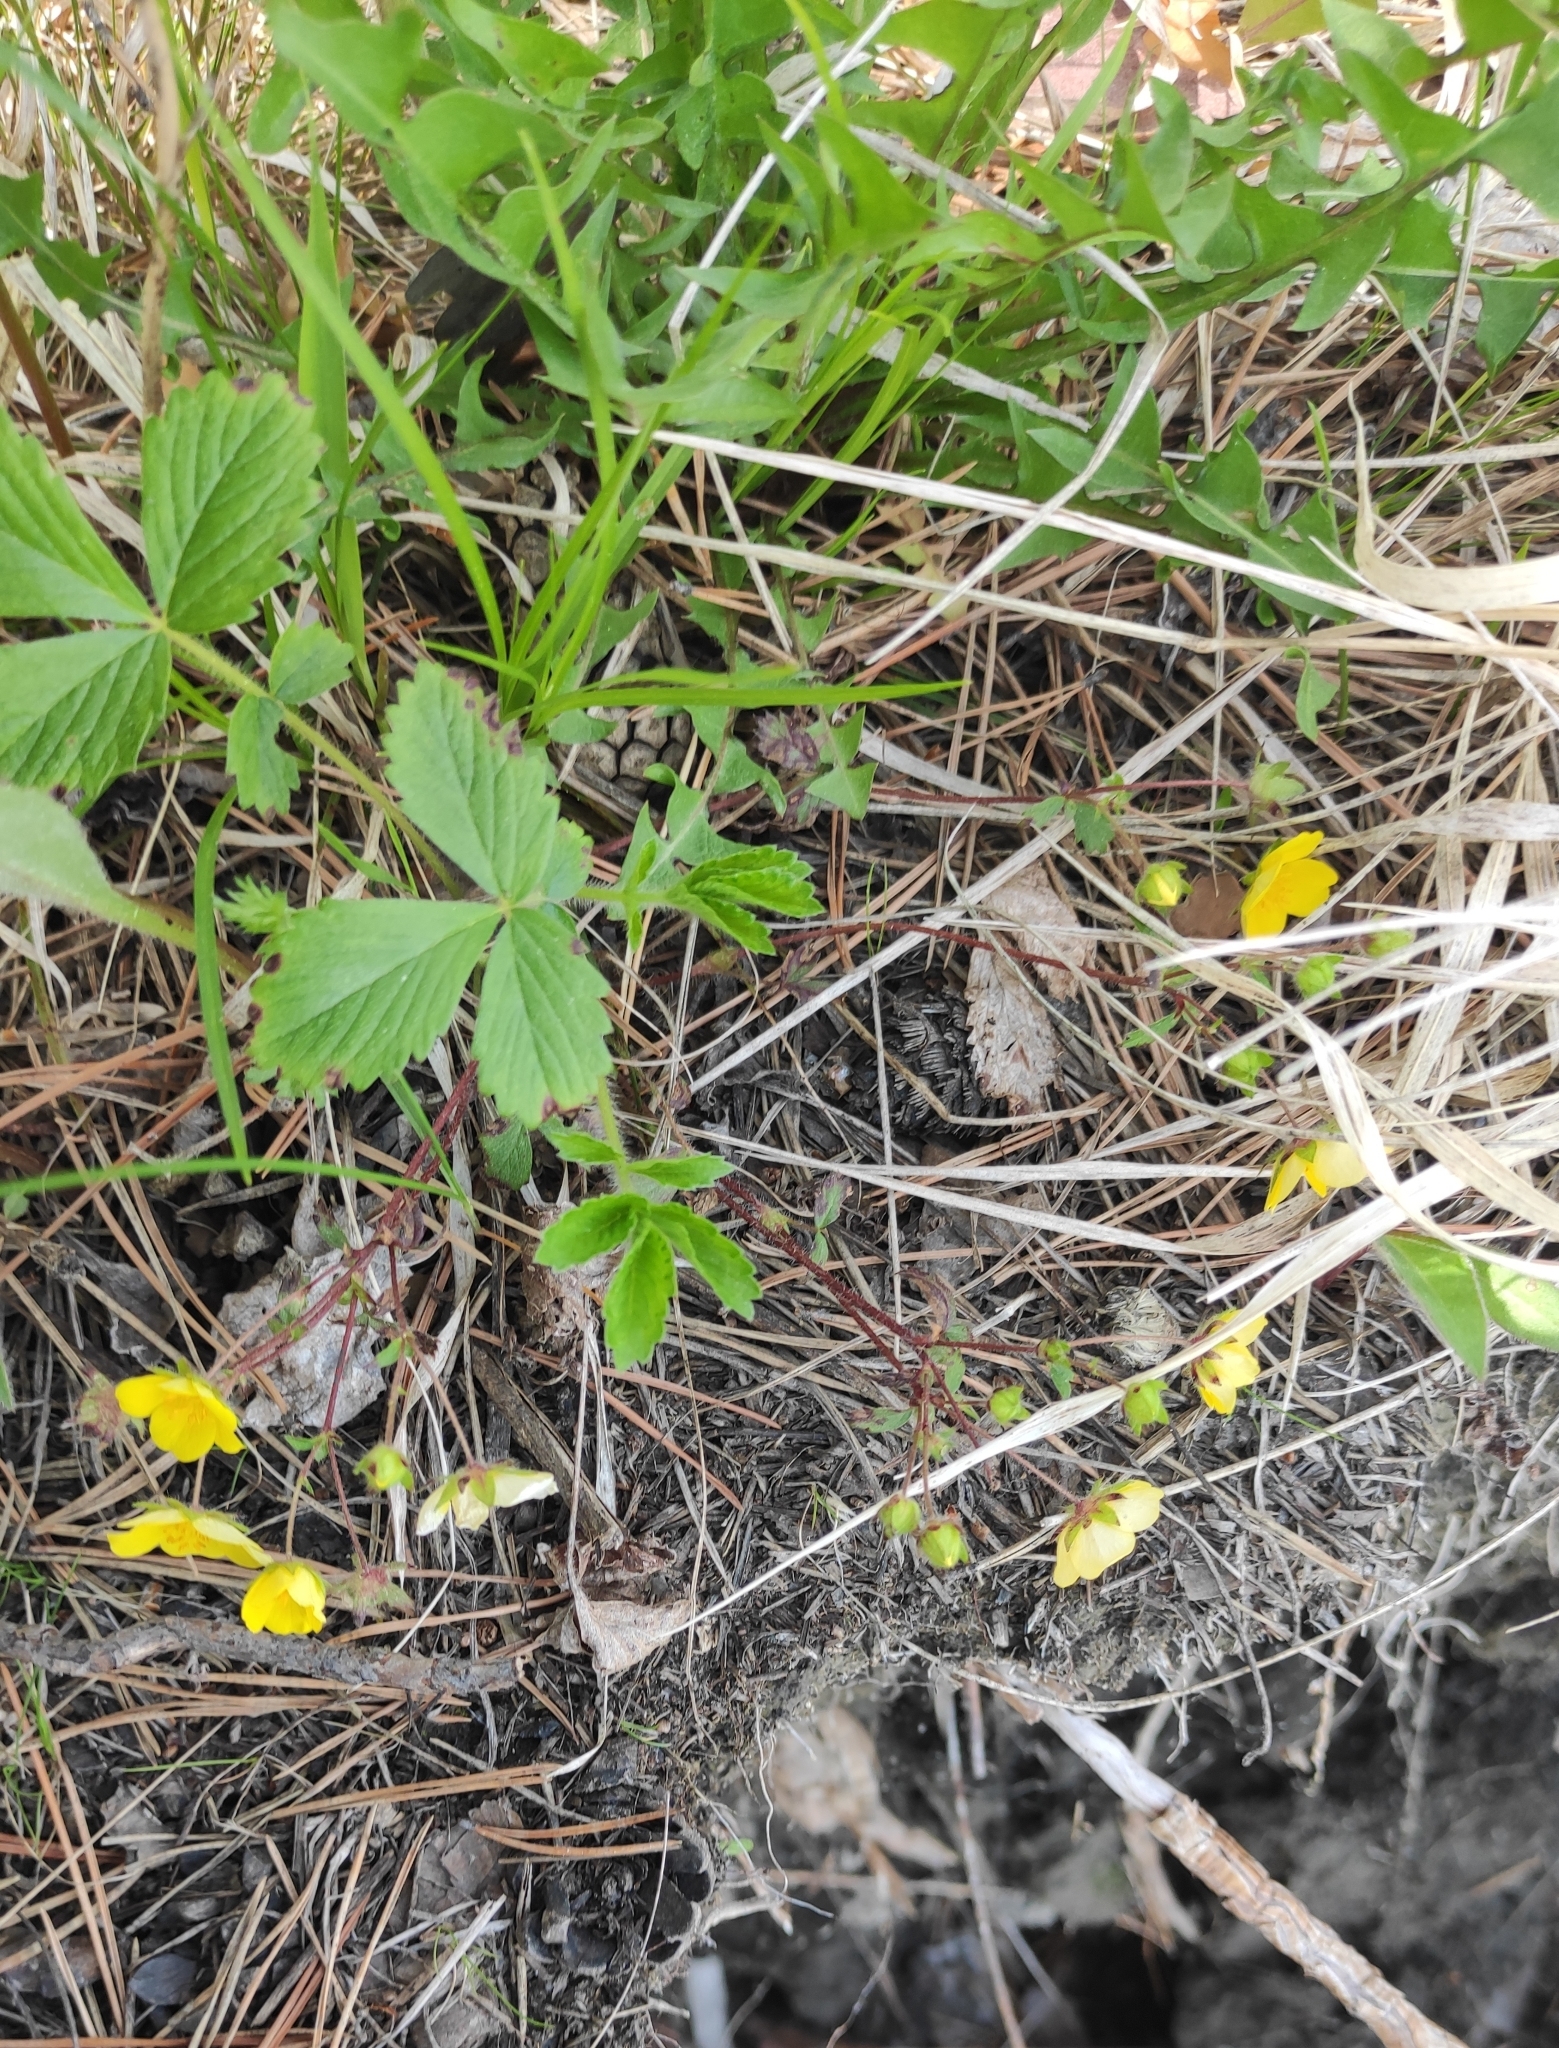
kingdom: Plantae
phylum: Tracheophyta
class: Magnoliopsida
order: Rosales
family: Rosaceae
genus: Potentilla
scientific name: Potentilla fragarioides
